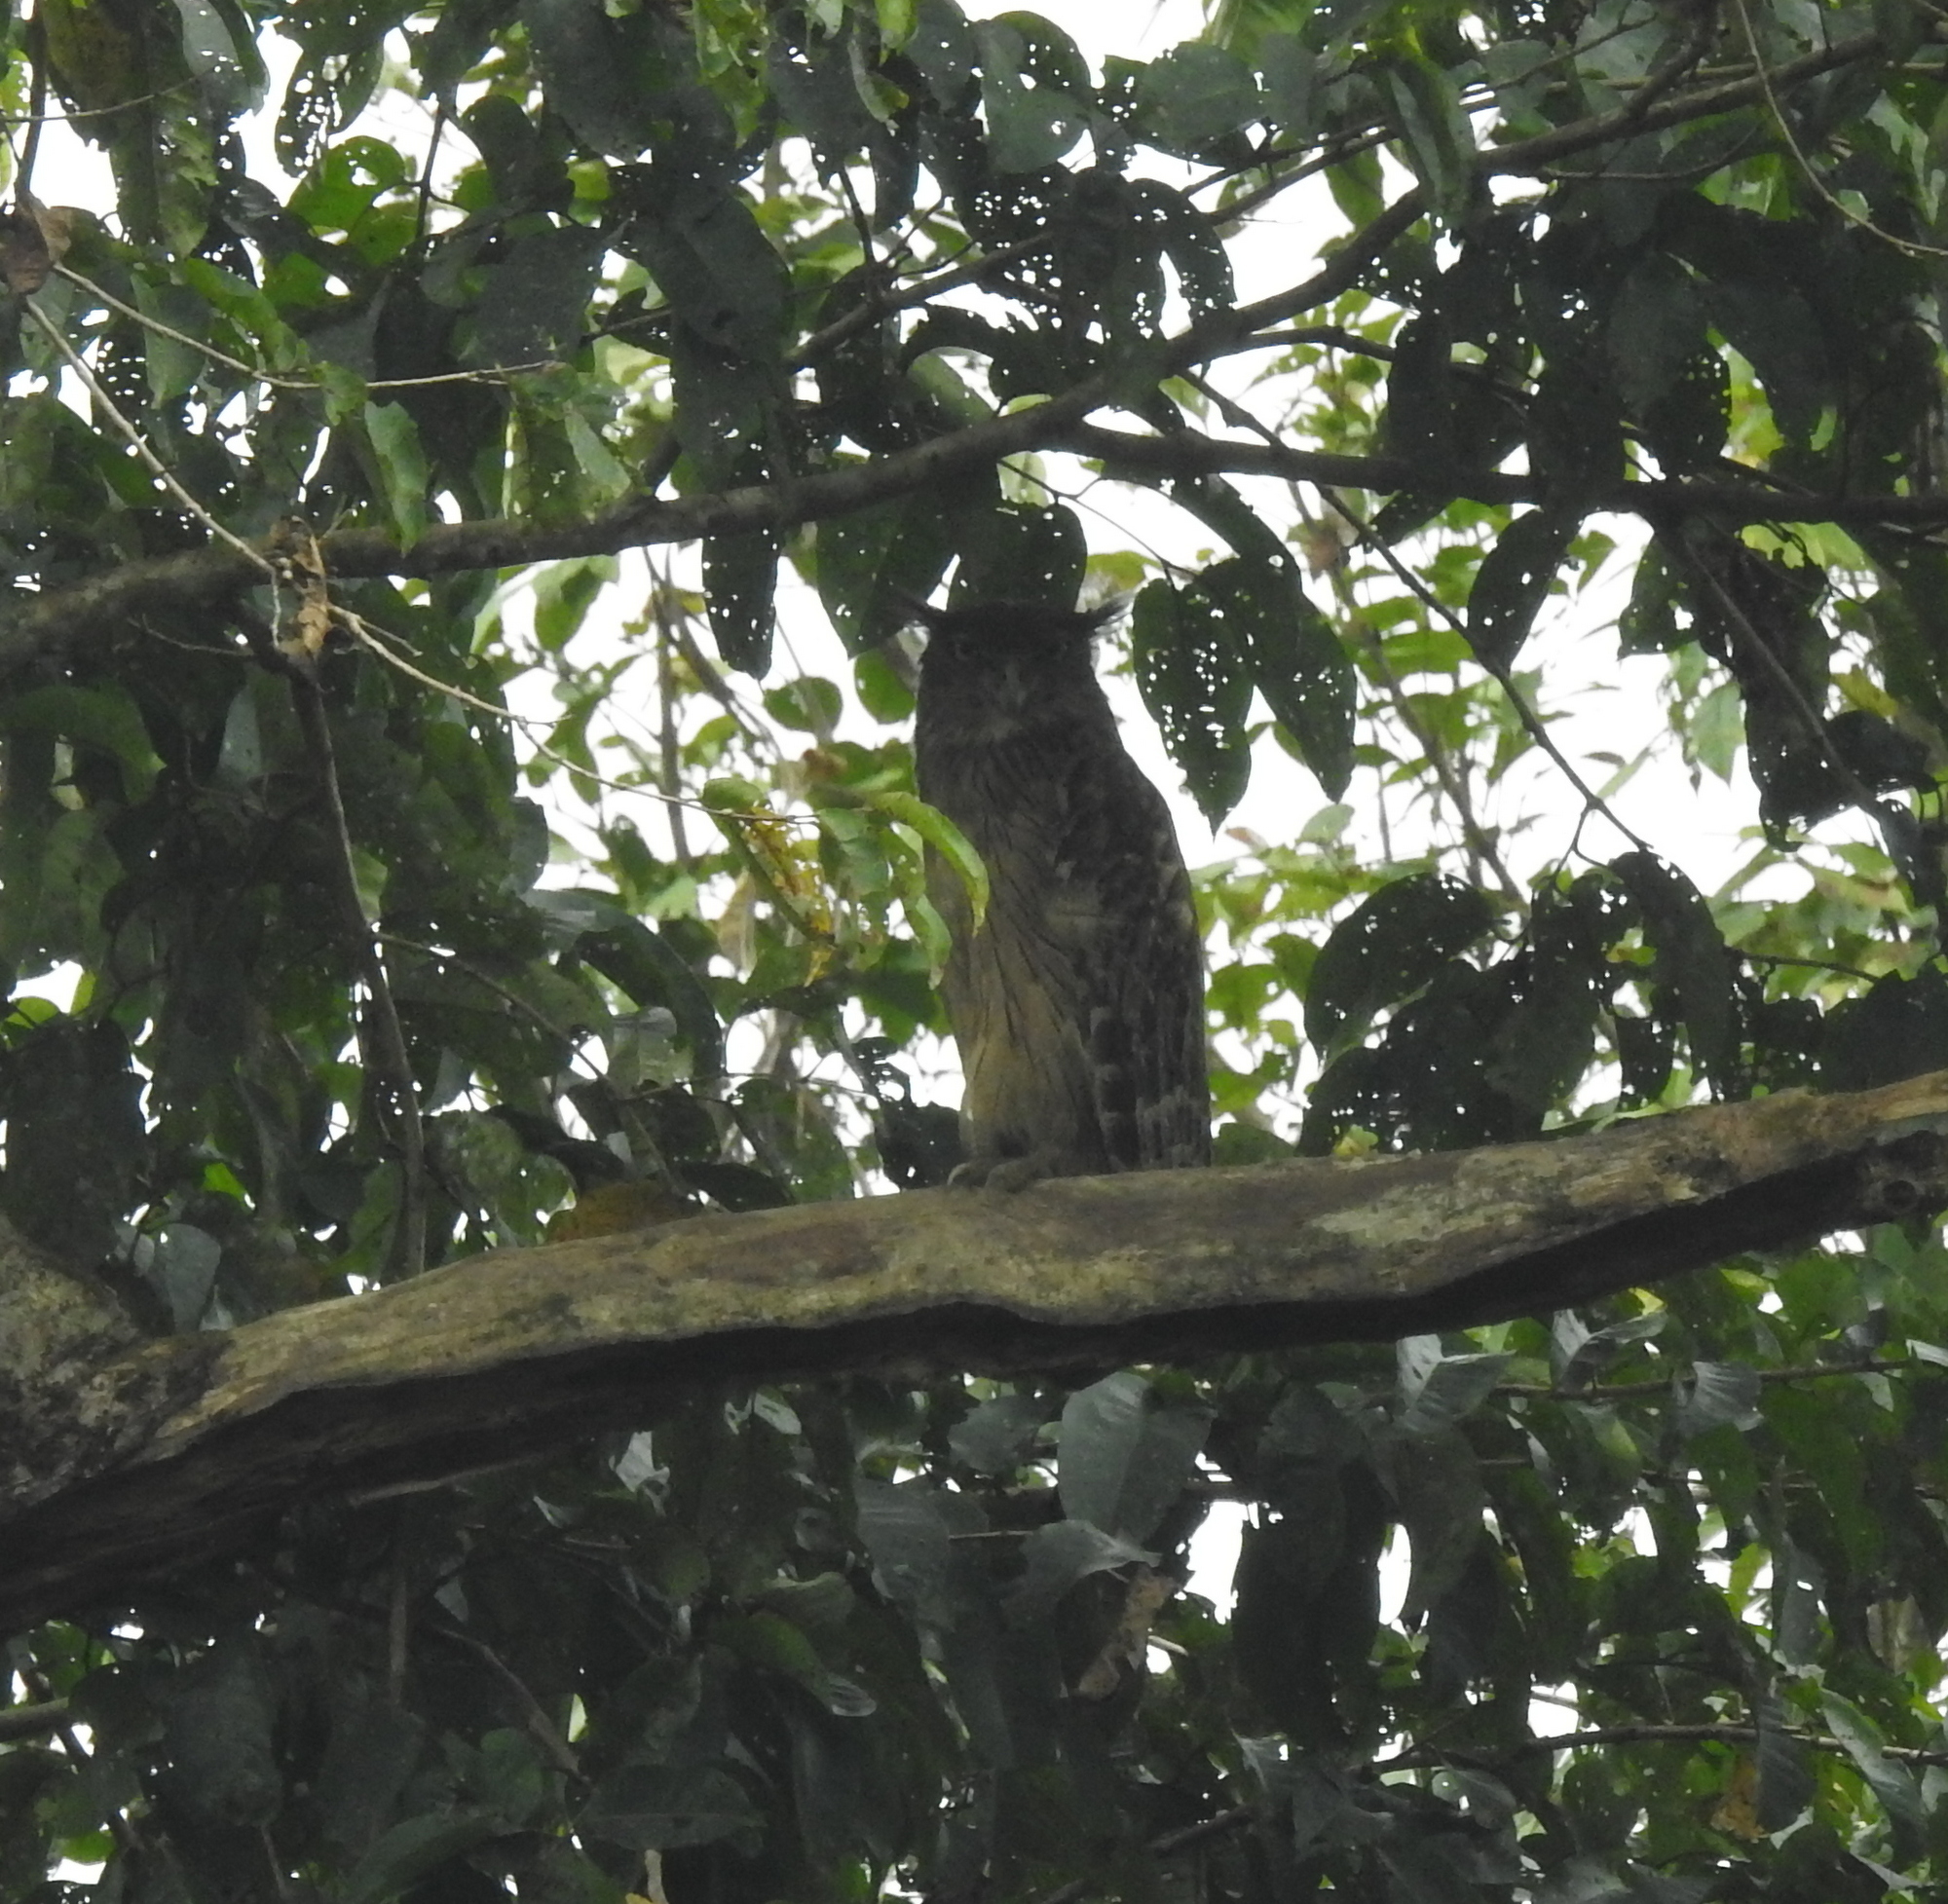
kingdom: Animalia
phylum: Chordata
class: Aves
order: Strigiformes
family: Strigidae
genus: Ketupa
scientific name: Ketupa zeylonensis
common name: Brown fish owl
